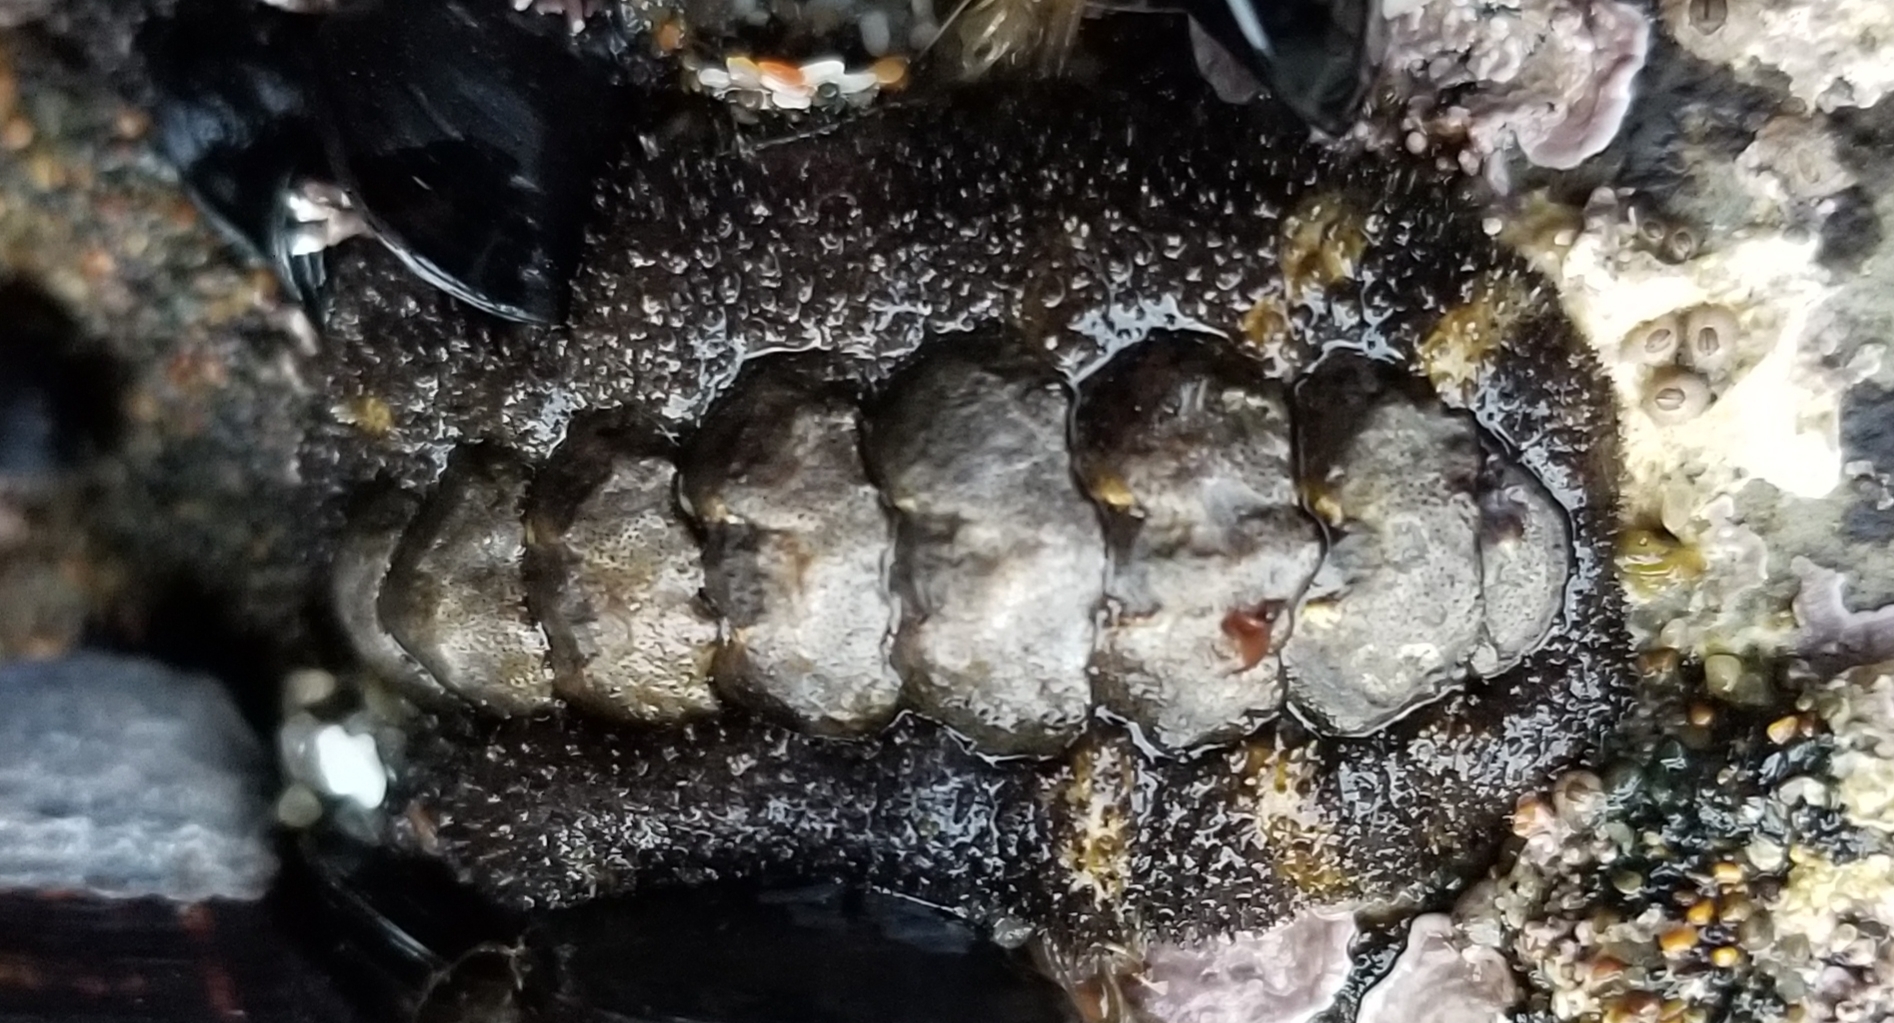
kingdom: Animalia
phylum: Mollusca
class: Polyplacophora
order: Chitonida
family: Tonicellidae
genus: Nuttallina
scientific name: Nuttallina californica
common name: California nuttall chiton
